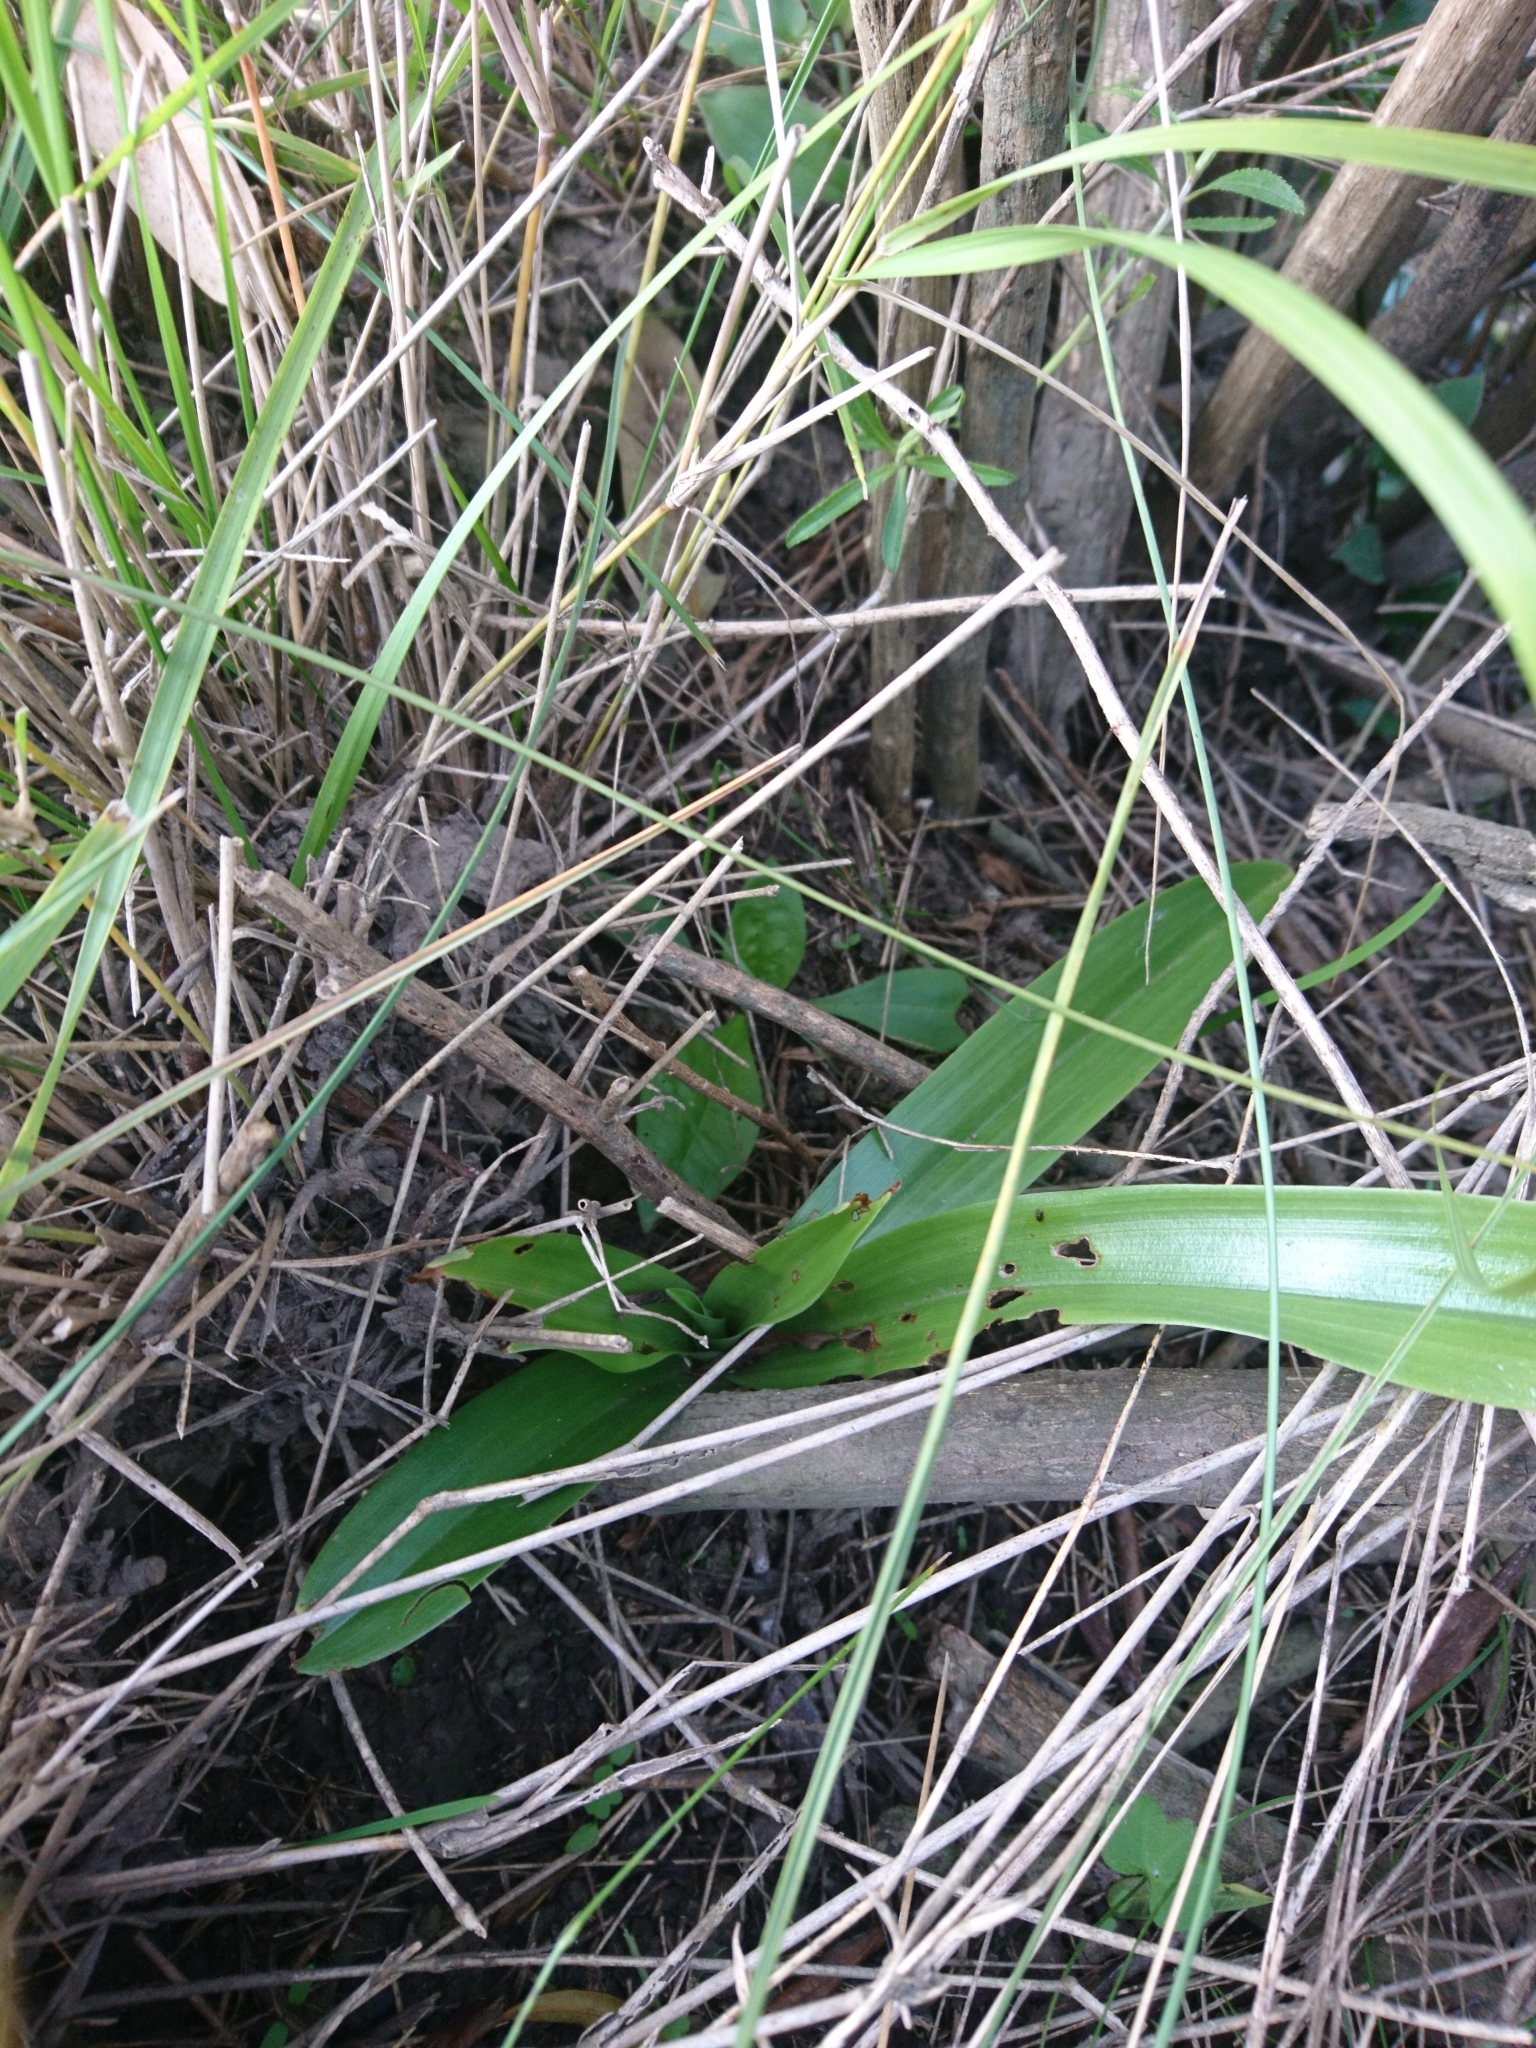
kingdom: Plantae
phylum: Tracheophyta
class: Liliopsida
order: Asparagales
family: Orchidaceae
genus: Chloraea
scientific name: Chloraea membranacea
